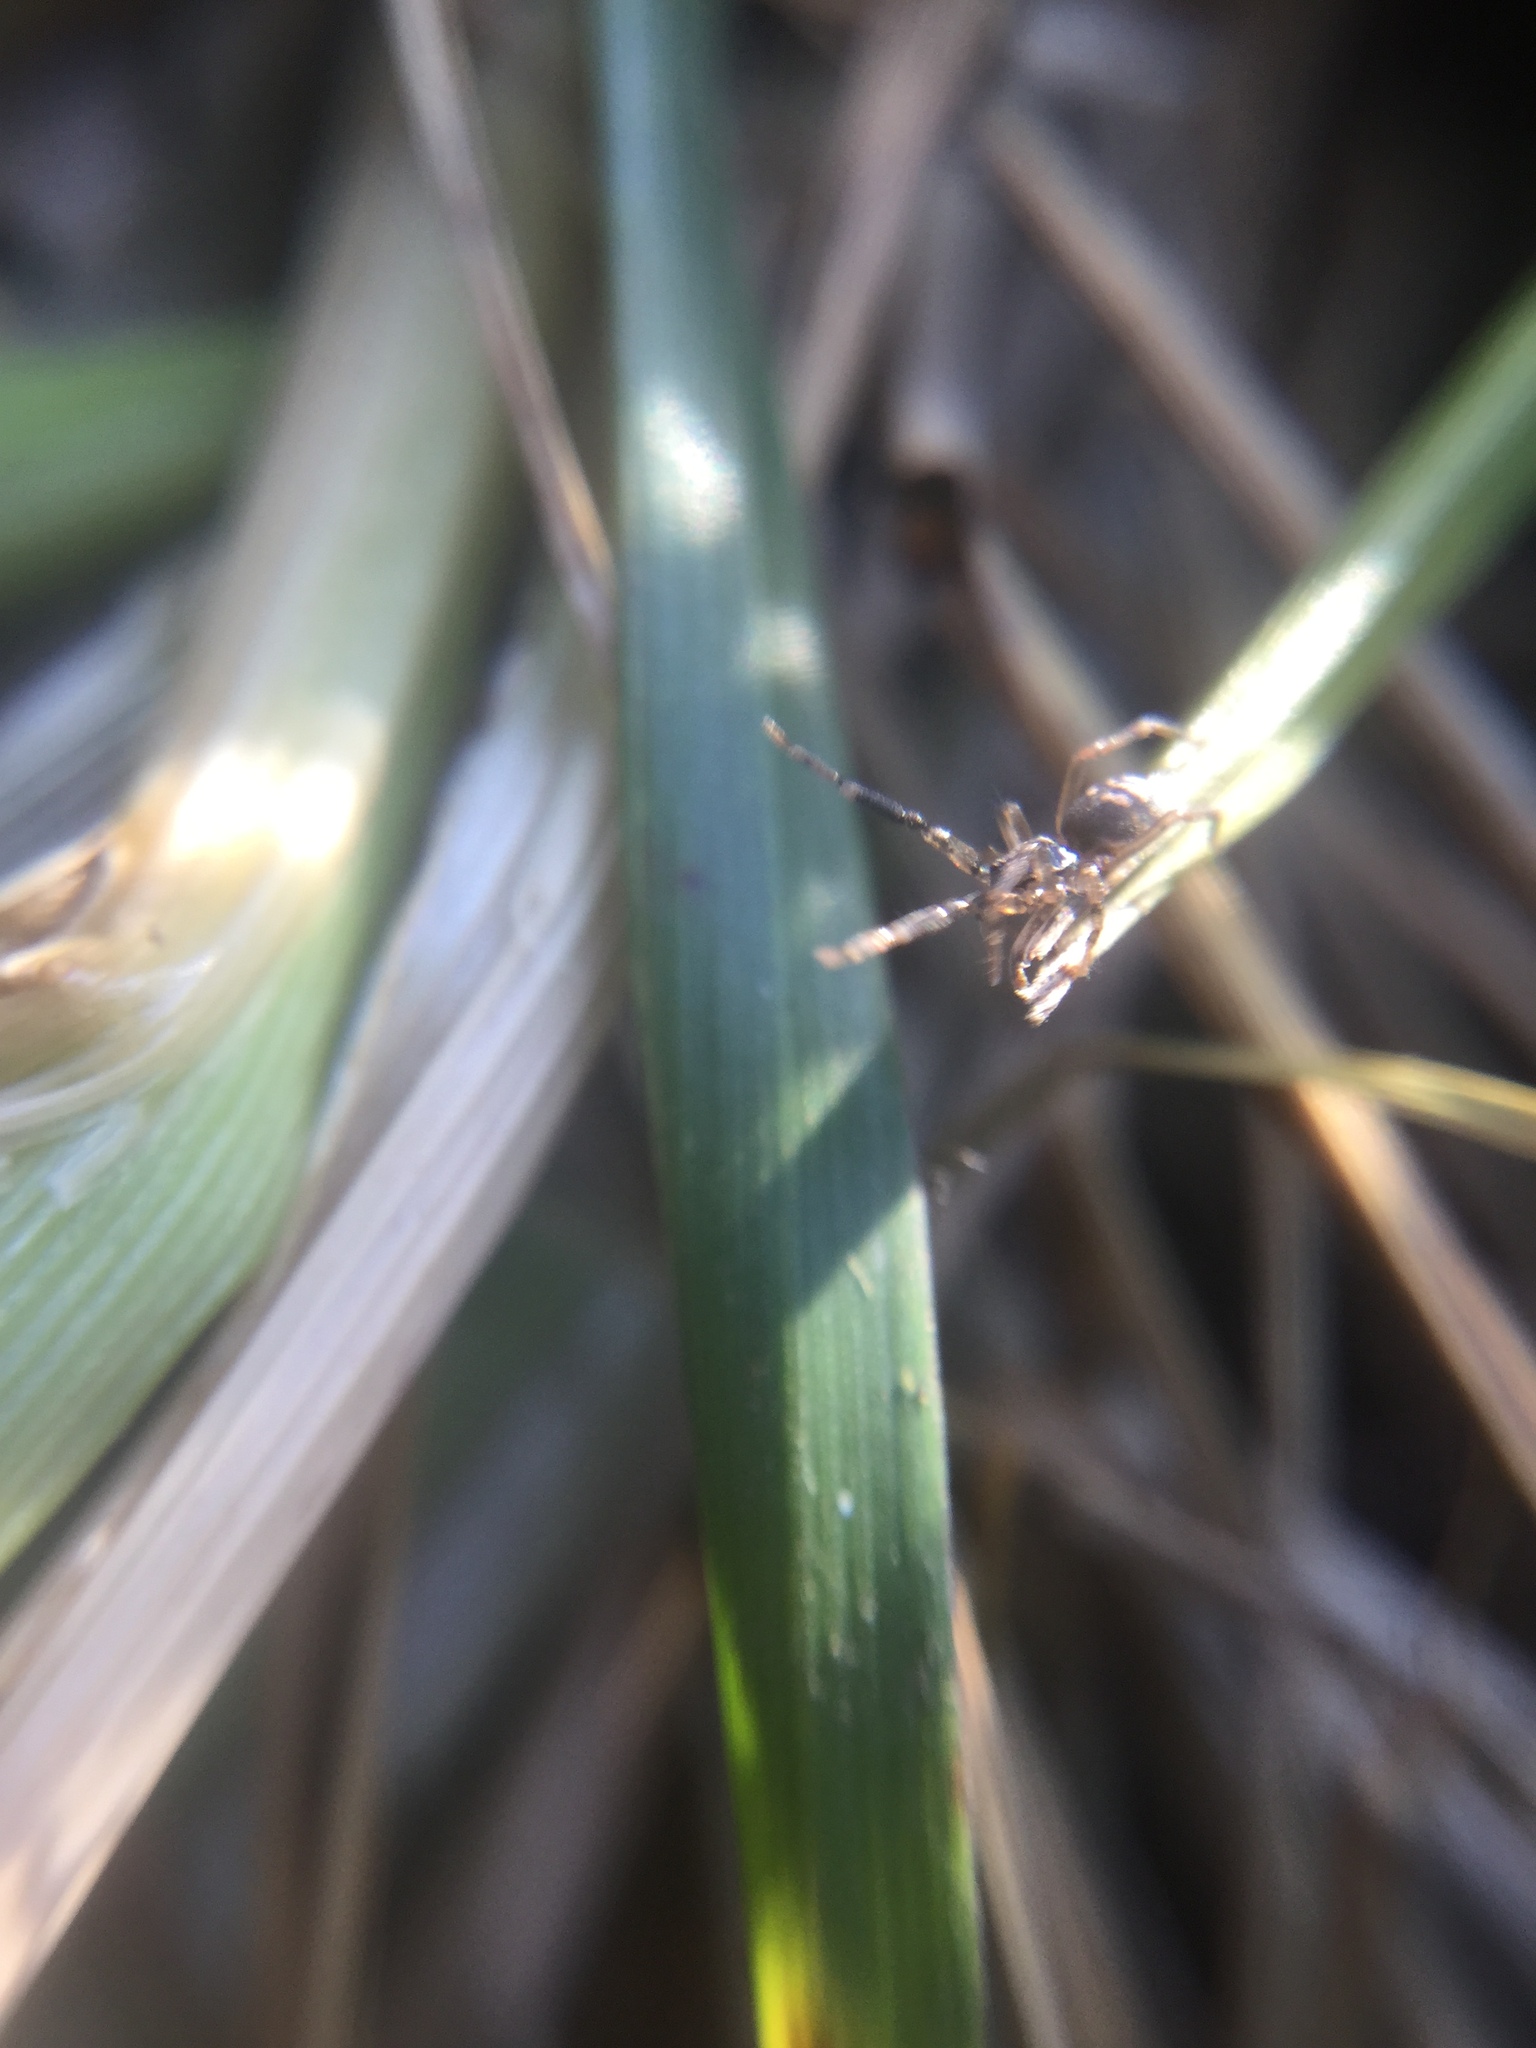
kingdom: Animalia
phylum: Arthropoda
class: Arachnida
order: Araneae
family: Phrurolithidae
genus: Phrurotimpus
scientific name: Phrurotimpus borealis
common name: Greater ant-mimic corinne spider
